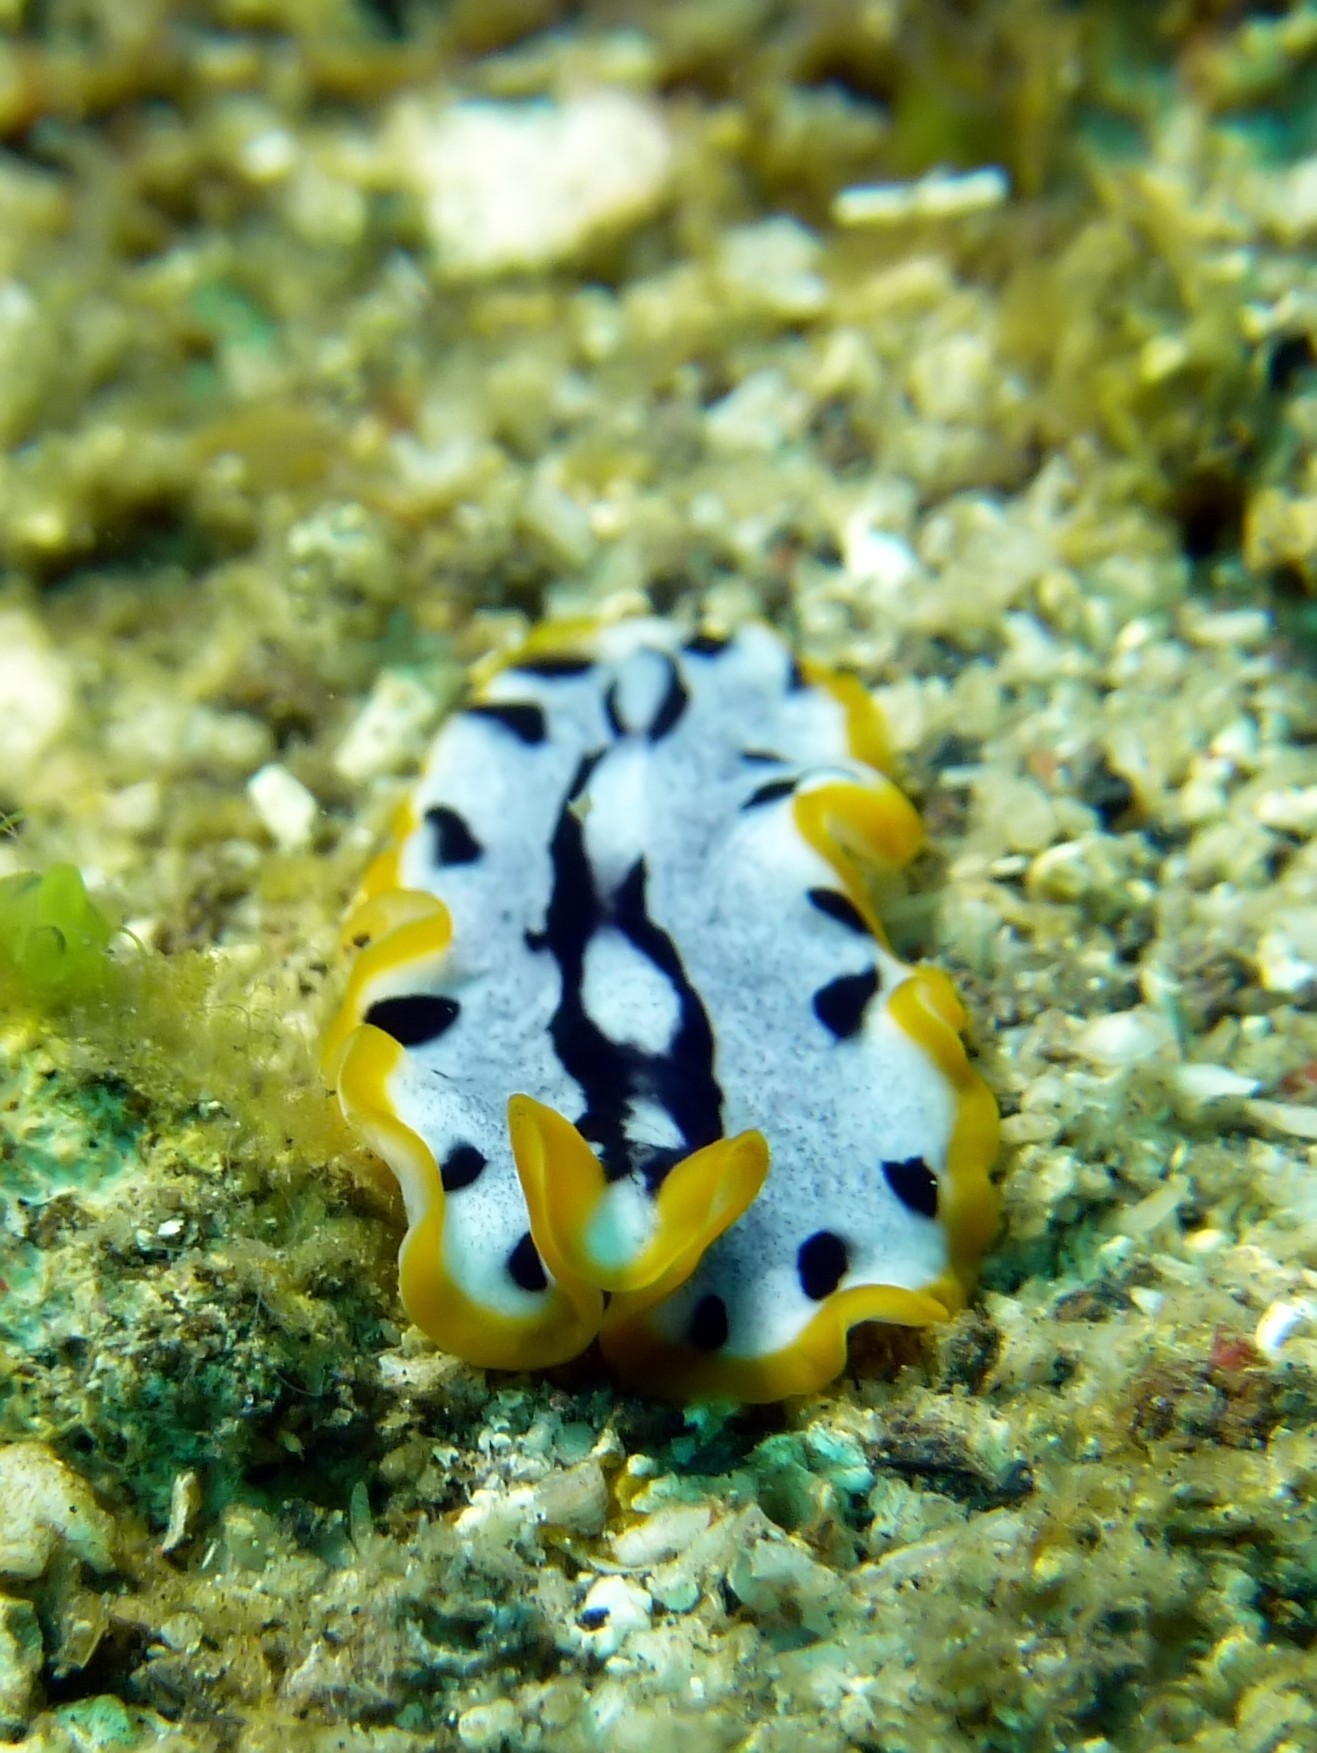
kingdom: Animalia
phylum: Platyhelminthes
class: Turbellaria
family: Pseudocerotidae
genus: Pseudoceros
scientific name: Pseudoceros scriptus
